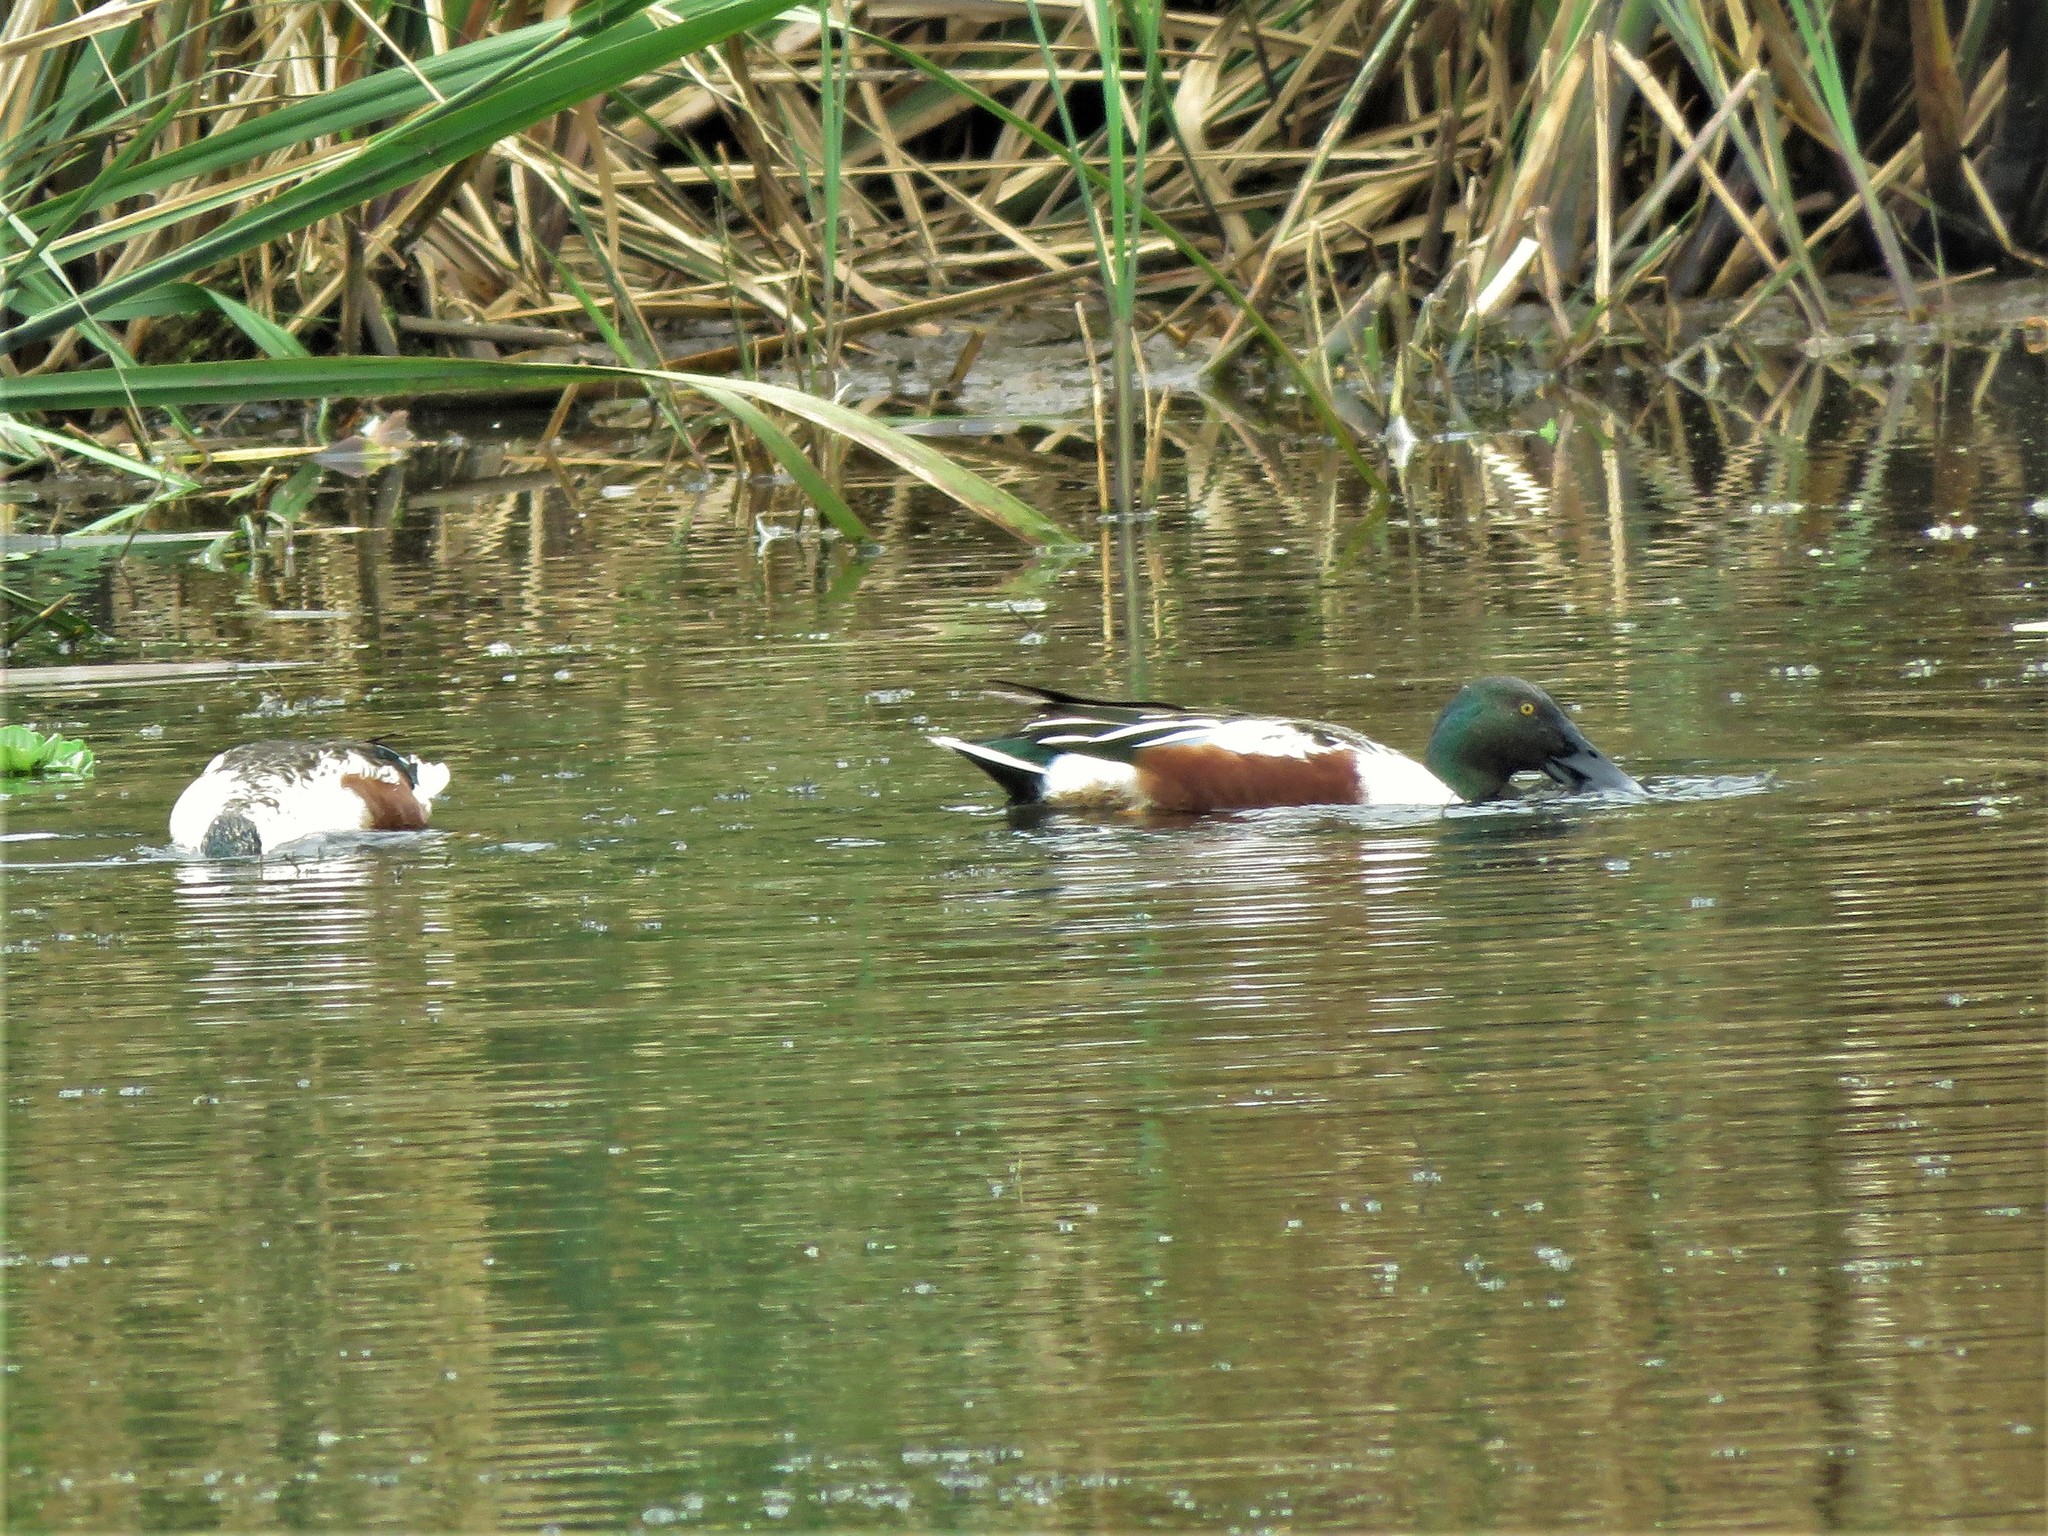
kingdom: Animalia
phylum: Chordata
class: Aves
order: Anseriformes
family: Anatidae
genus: Spatula
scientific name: Spatula clypeata
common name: Northern shoveler
